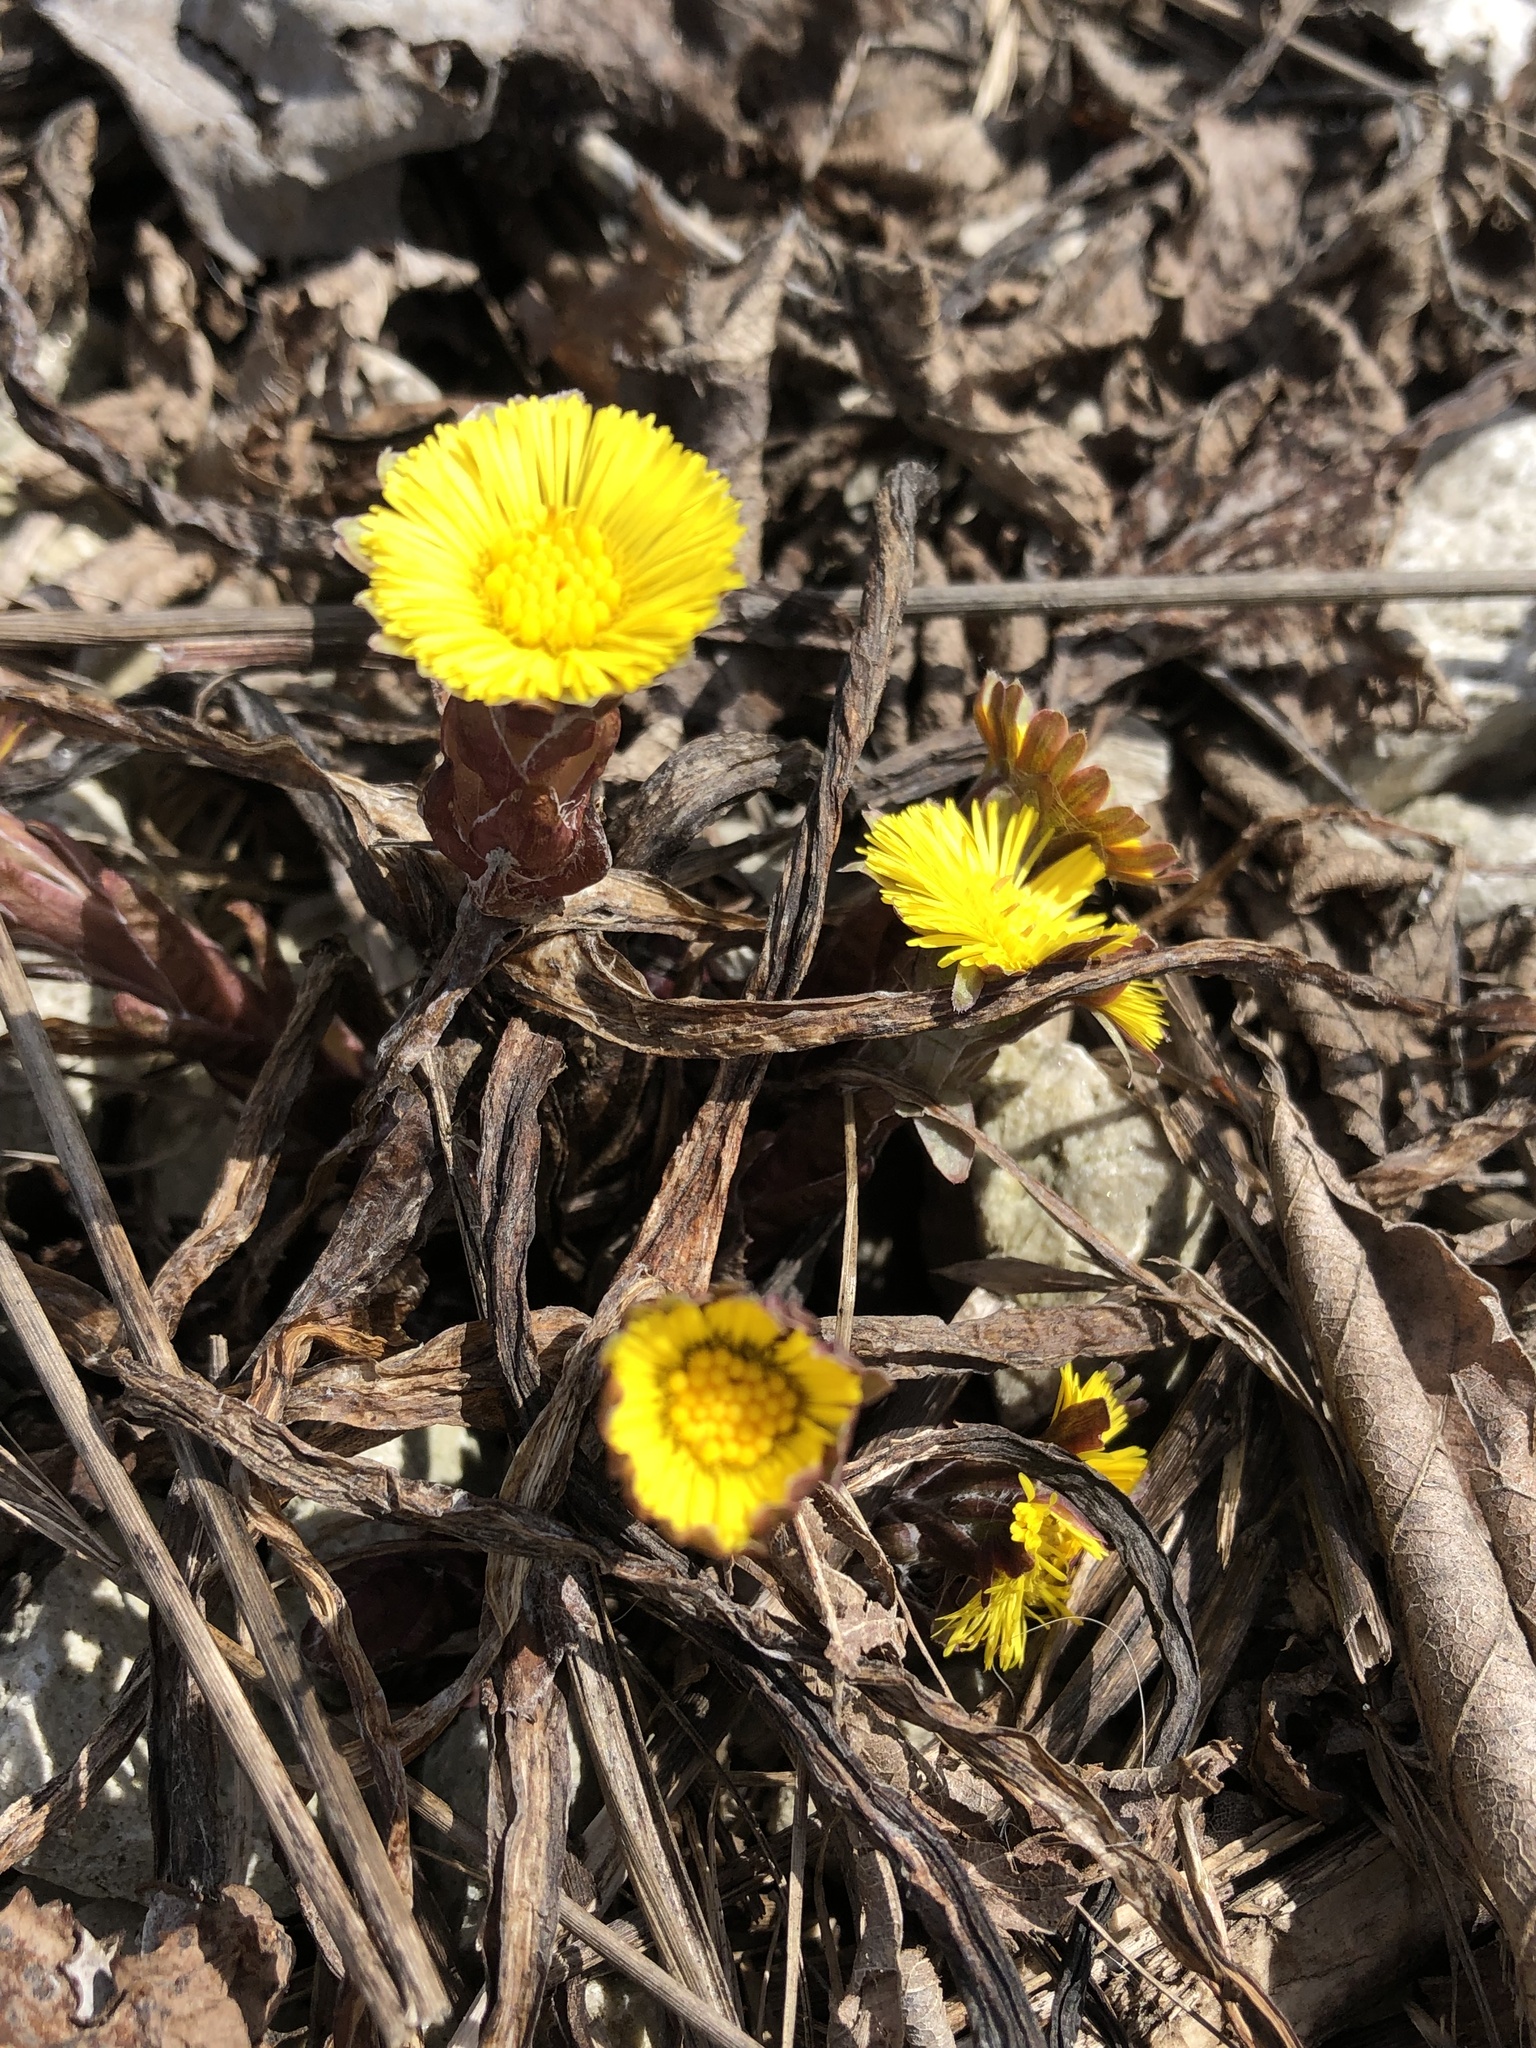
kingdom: Plantae
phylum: Tracheophyta
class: Magnoliopsida
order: Asterales
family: Asteraceae
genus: Tussilago
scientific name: Tussilago farfara
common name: Coltsfoot
